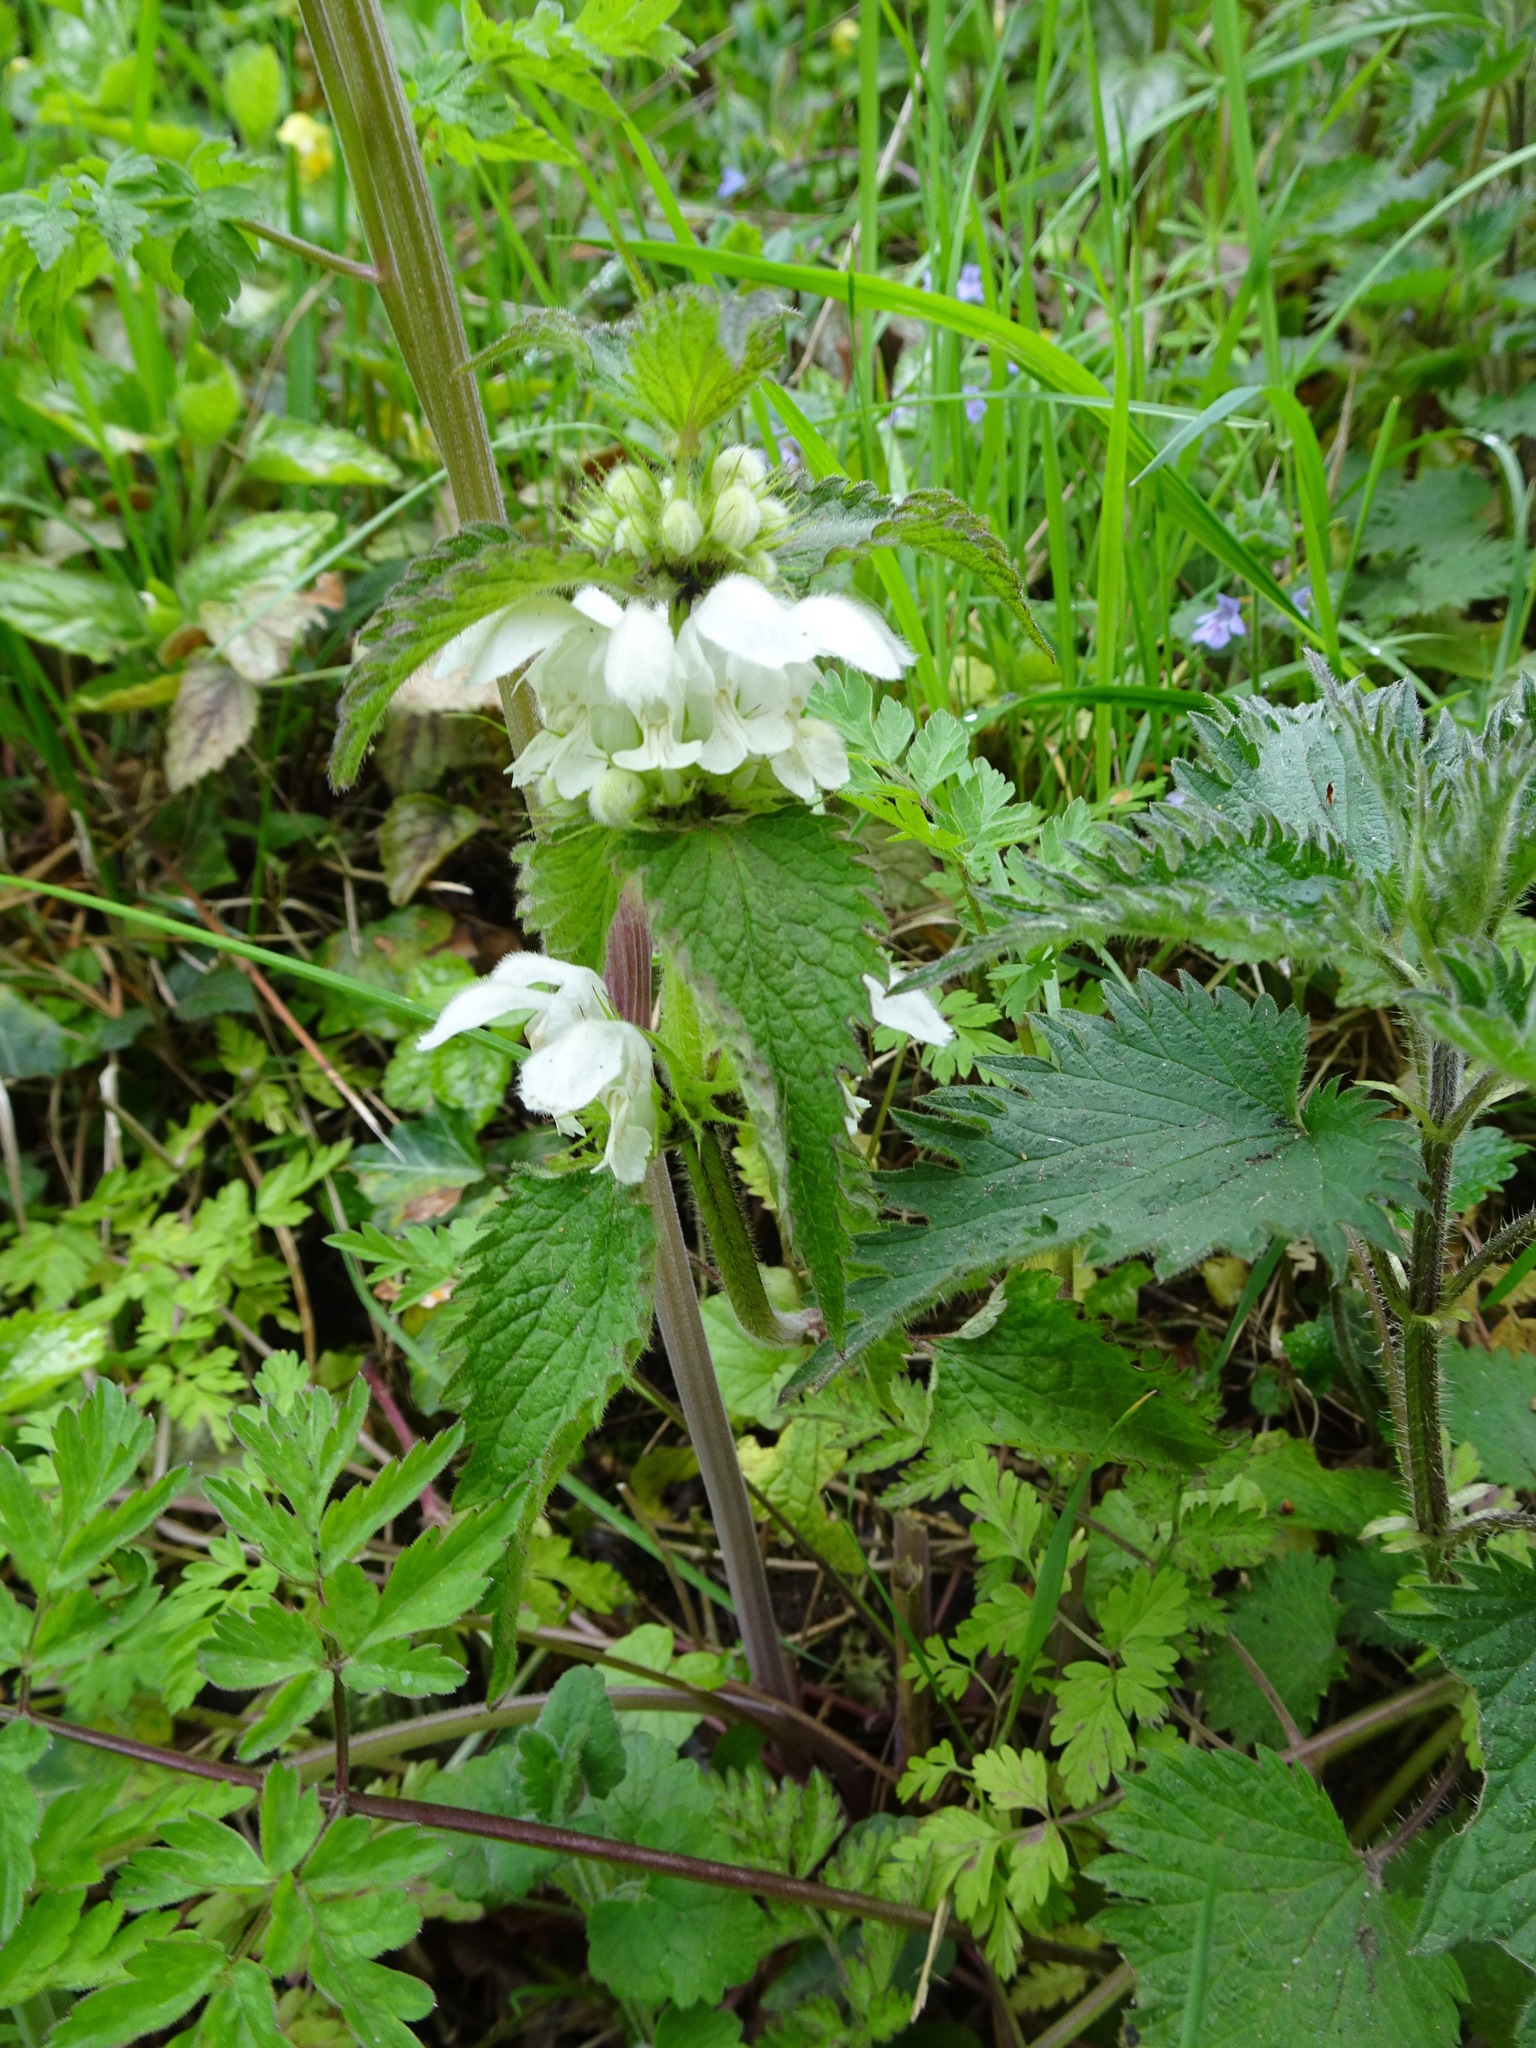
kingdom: Plantae
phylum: Tracheophyta
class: Magnoliopsida
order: Lamiales
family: Lamiaceae
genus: Lamium
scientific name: Lamium album
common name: White dead-nettle
